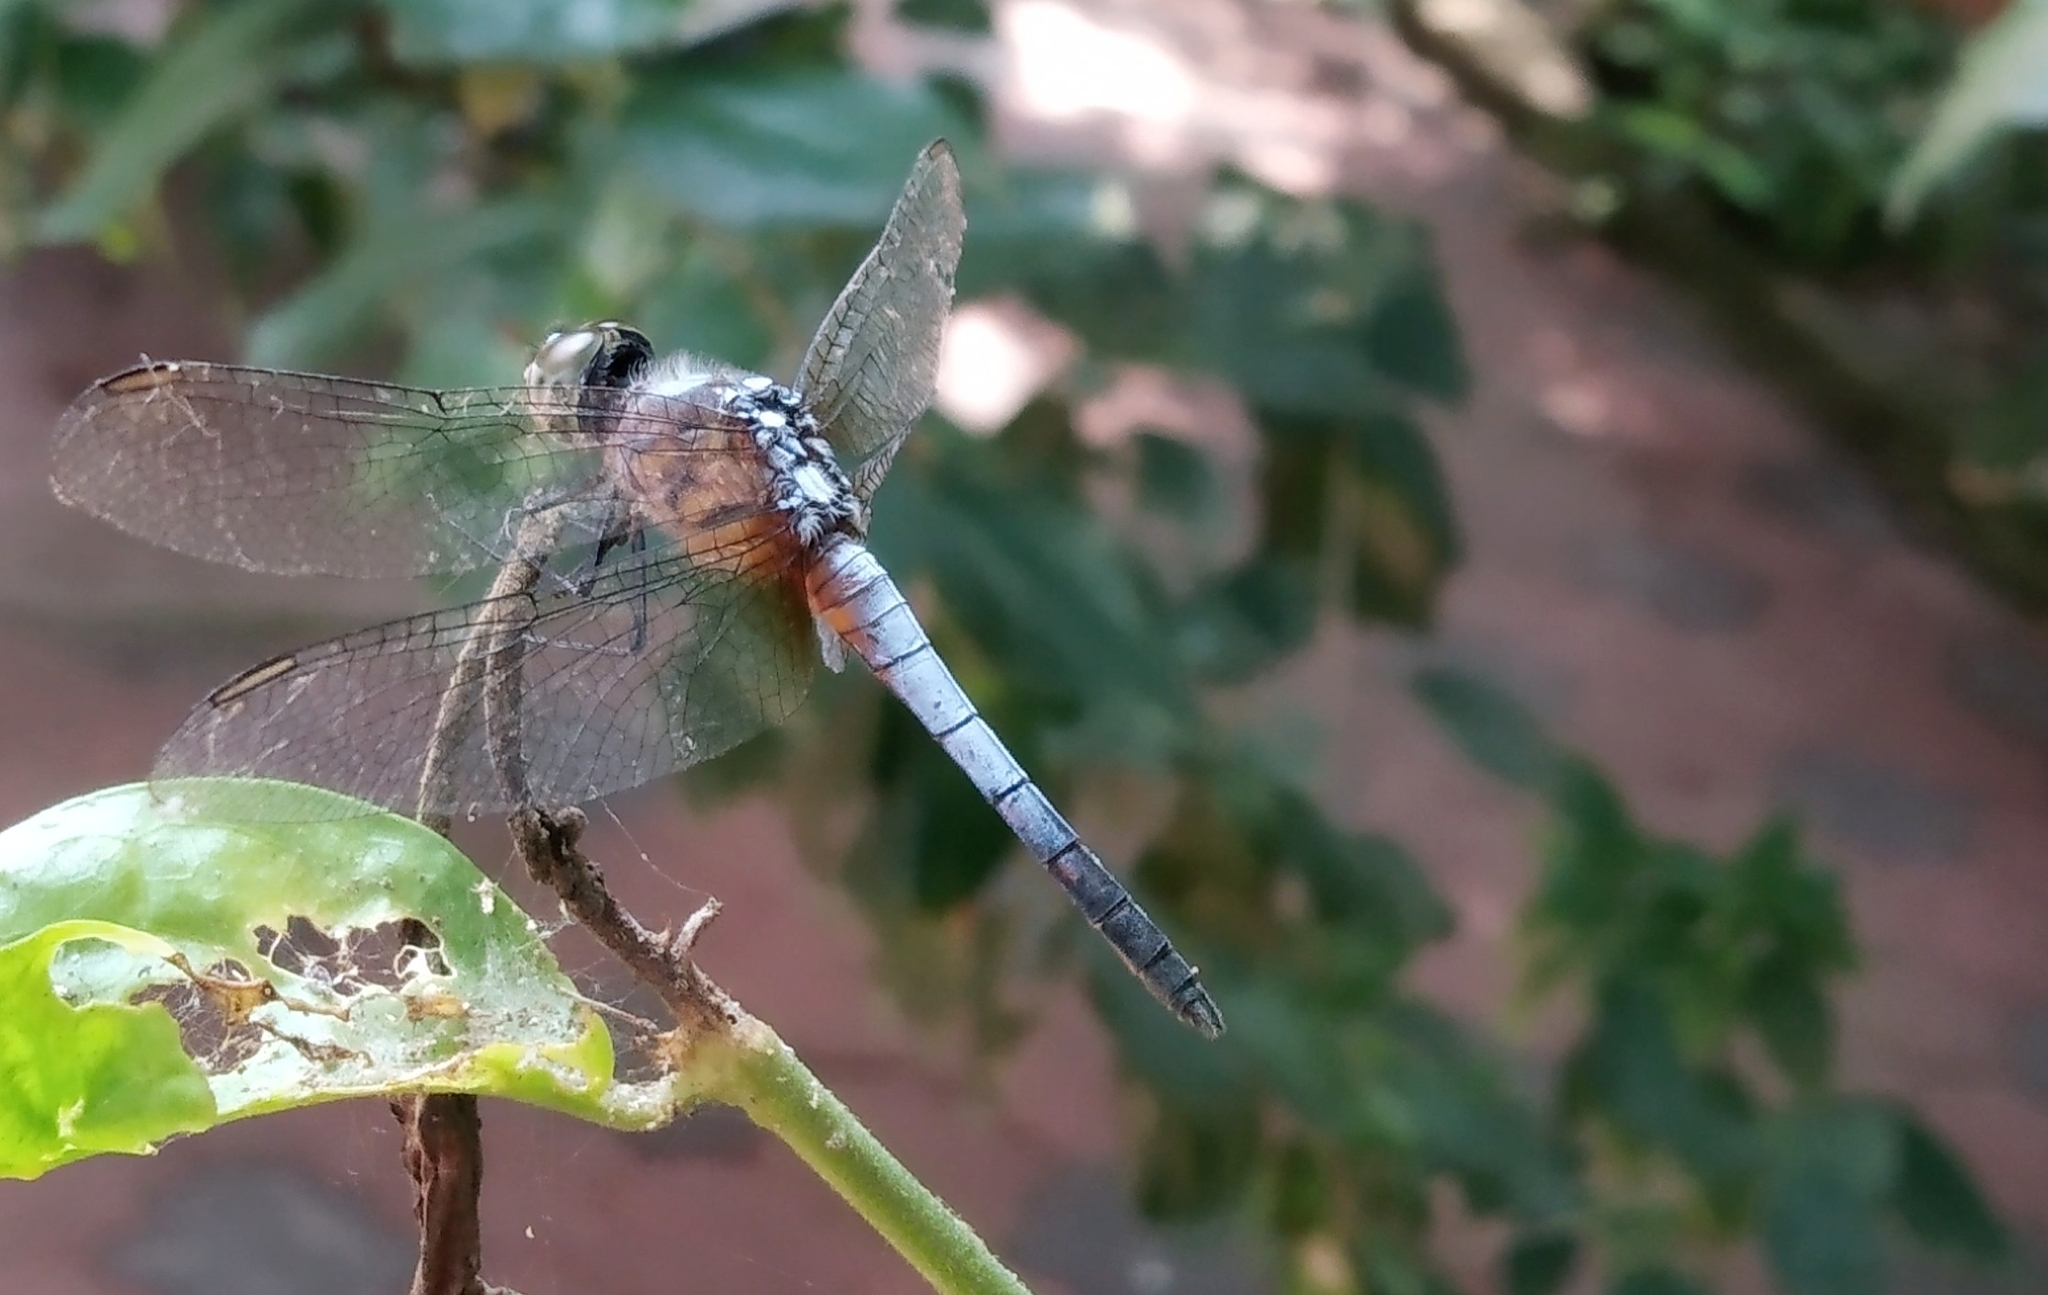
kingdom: Animalia
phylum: Arthropoda
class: Insecta
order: Odonata
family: Libellulidae
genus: Brachydiplax
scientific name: Brachydiplax chalybea
